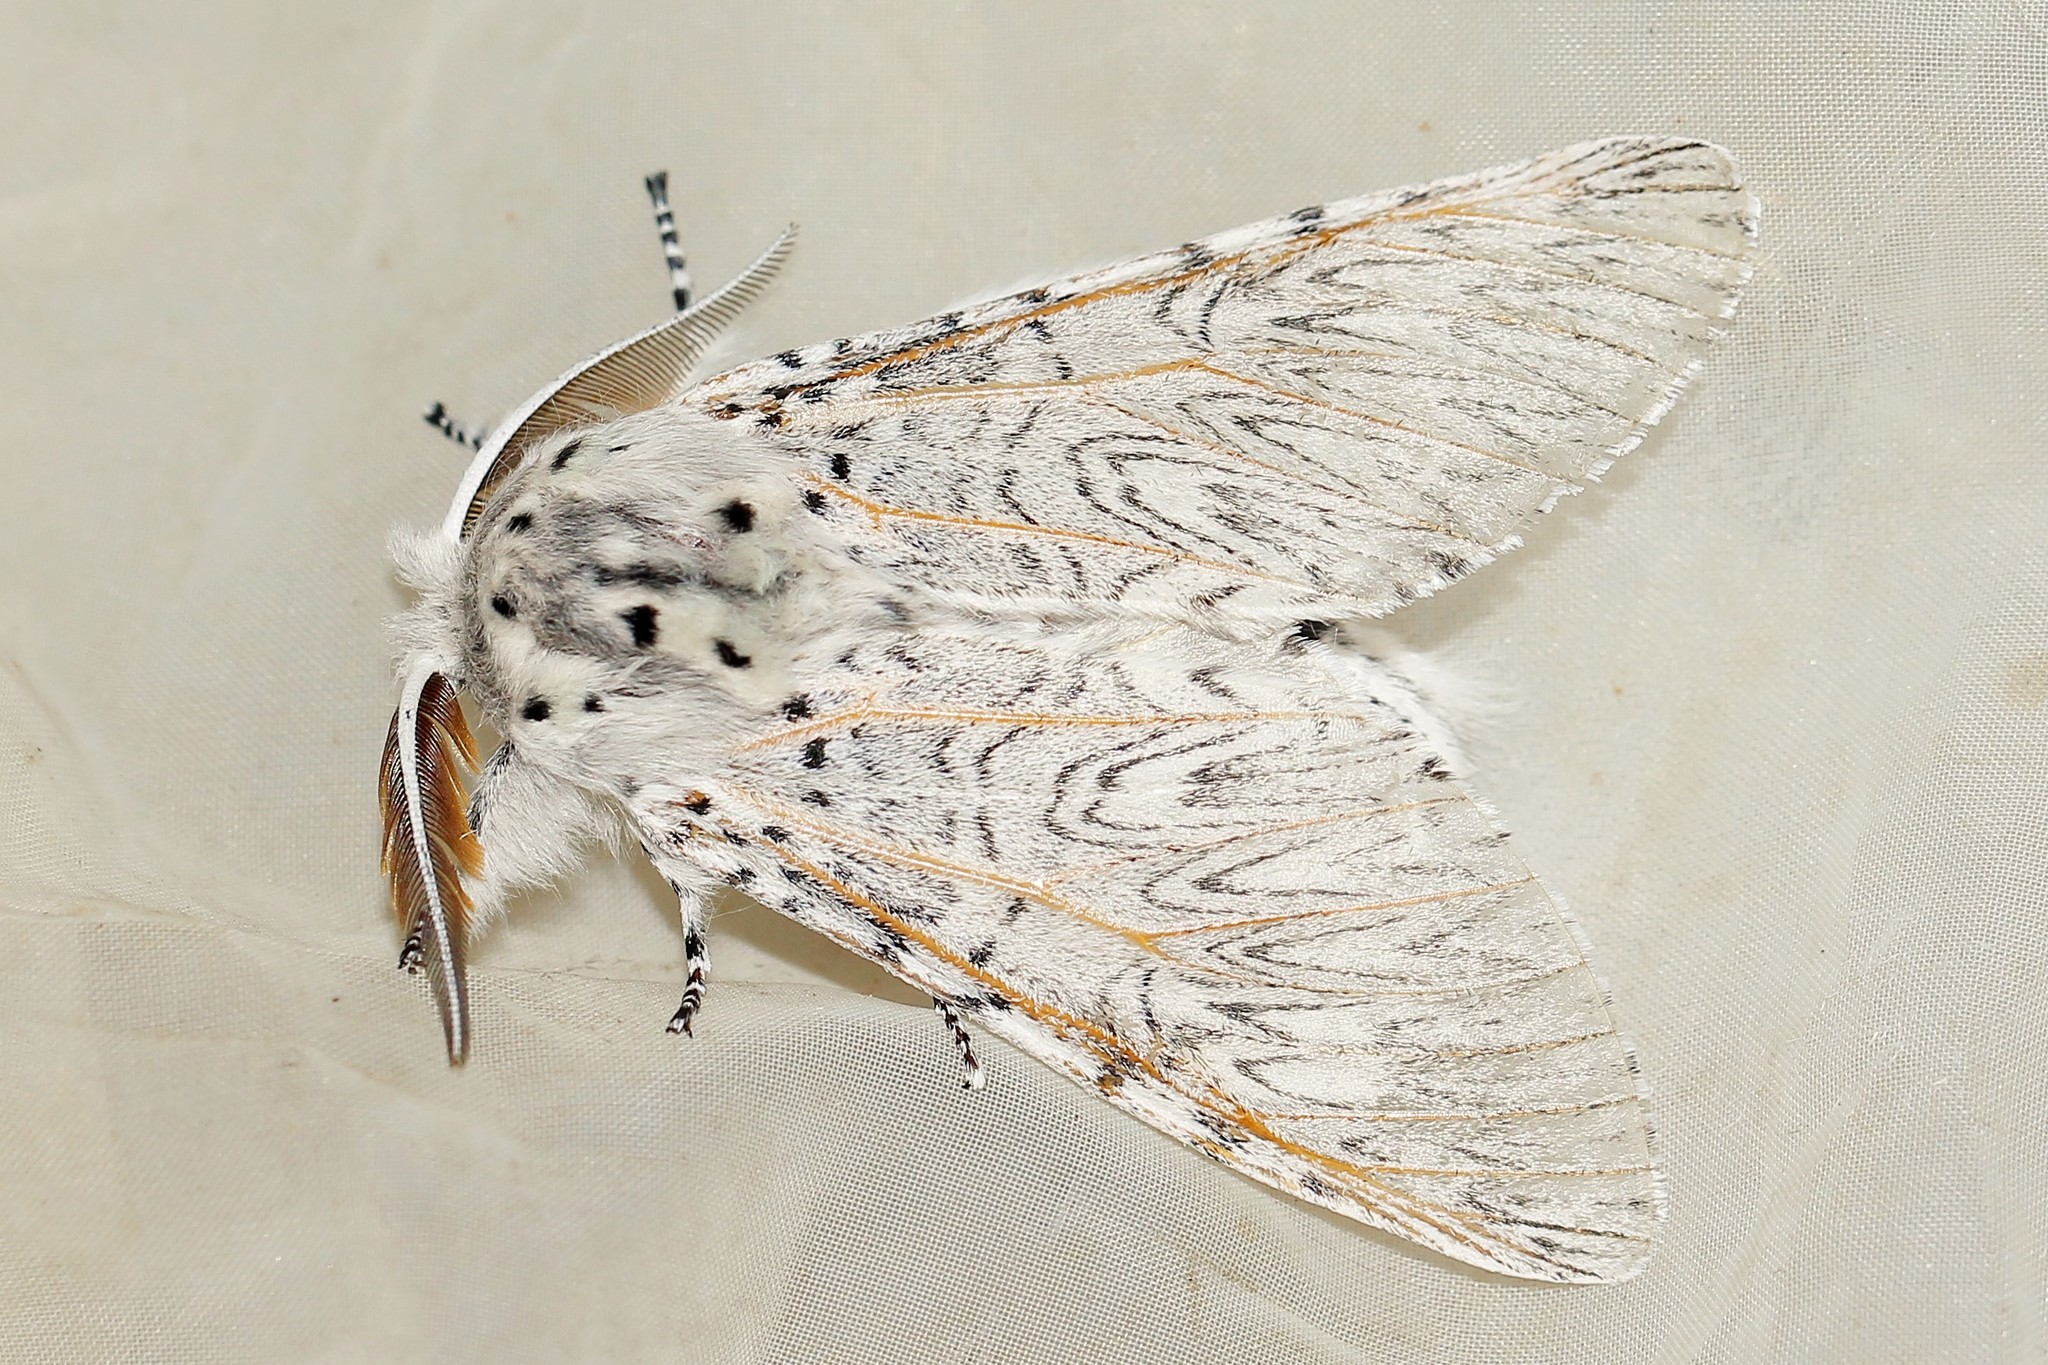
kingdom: Animalia
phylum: Arthropoda
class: Insecta
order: Lepidoptera
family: Notodontidae
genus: Cerura
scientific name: Cerura vinula
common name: Puss moth
